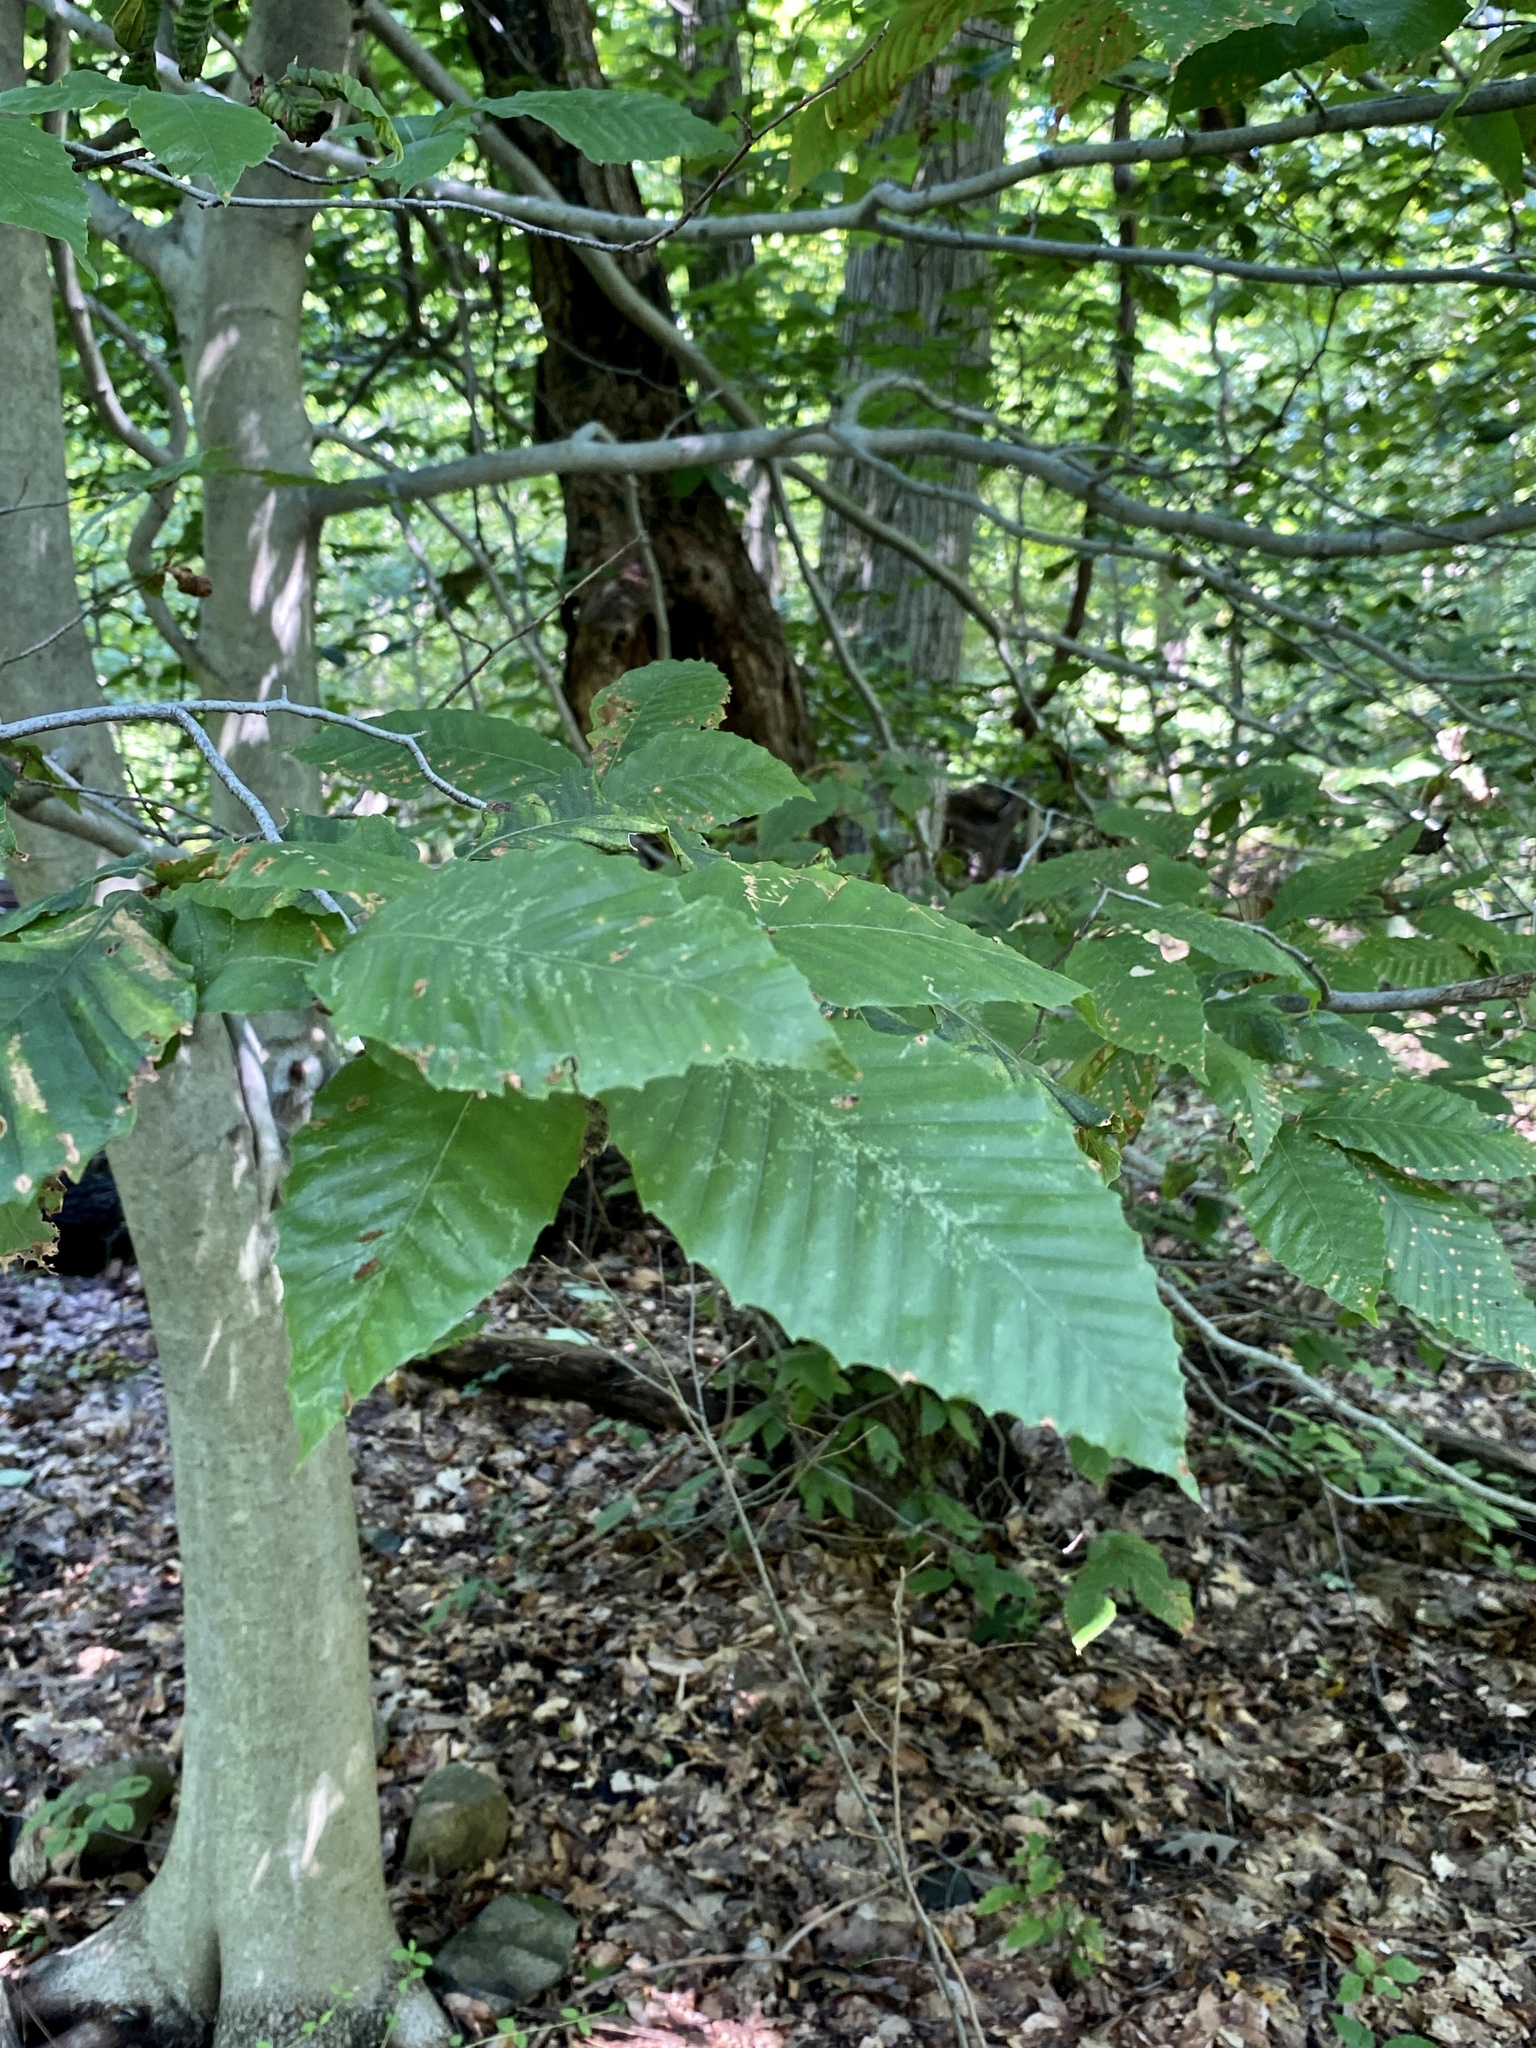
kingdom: Plantae
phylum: Tracheophyta
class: Magnoliopsida
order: Fagales
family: Fagaceae
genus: Fagus
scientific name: Fagus grandifolia
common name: American beech
